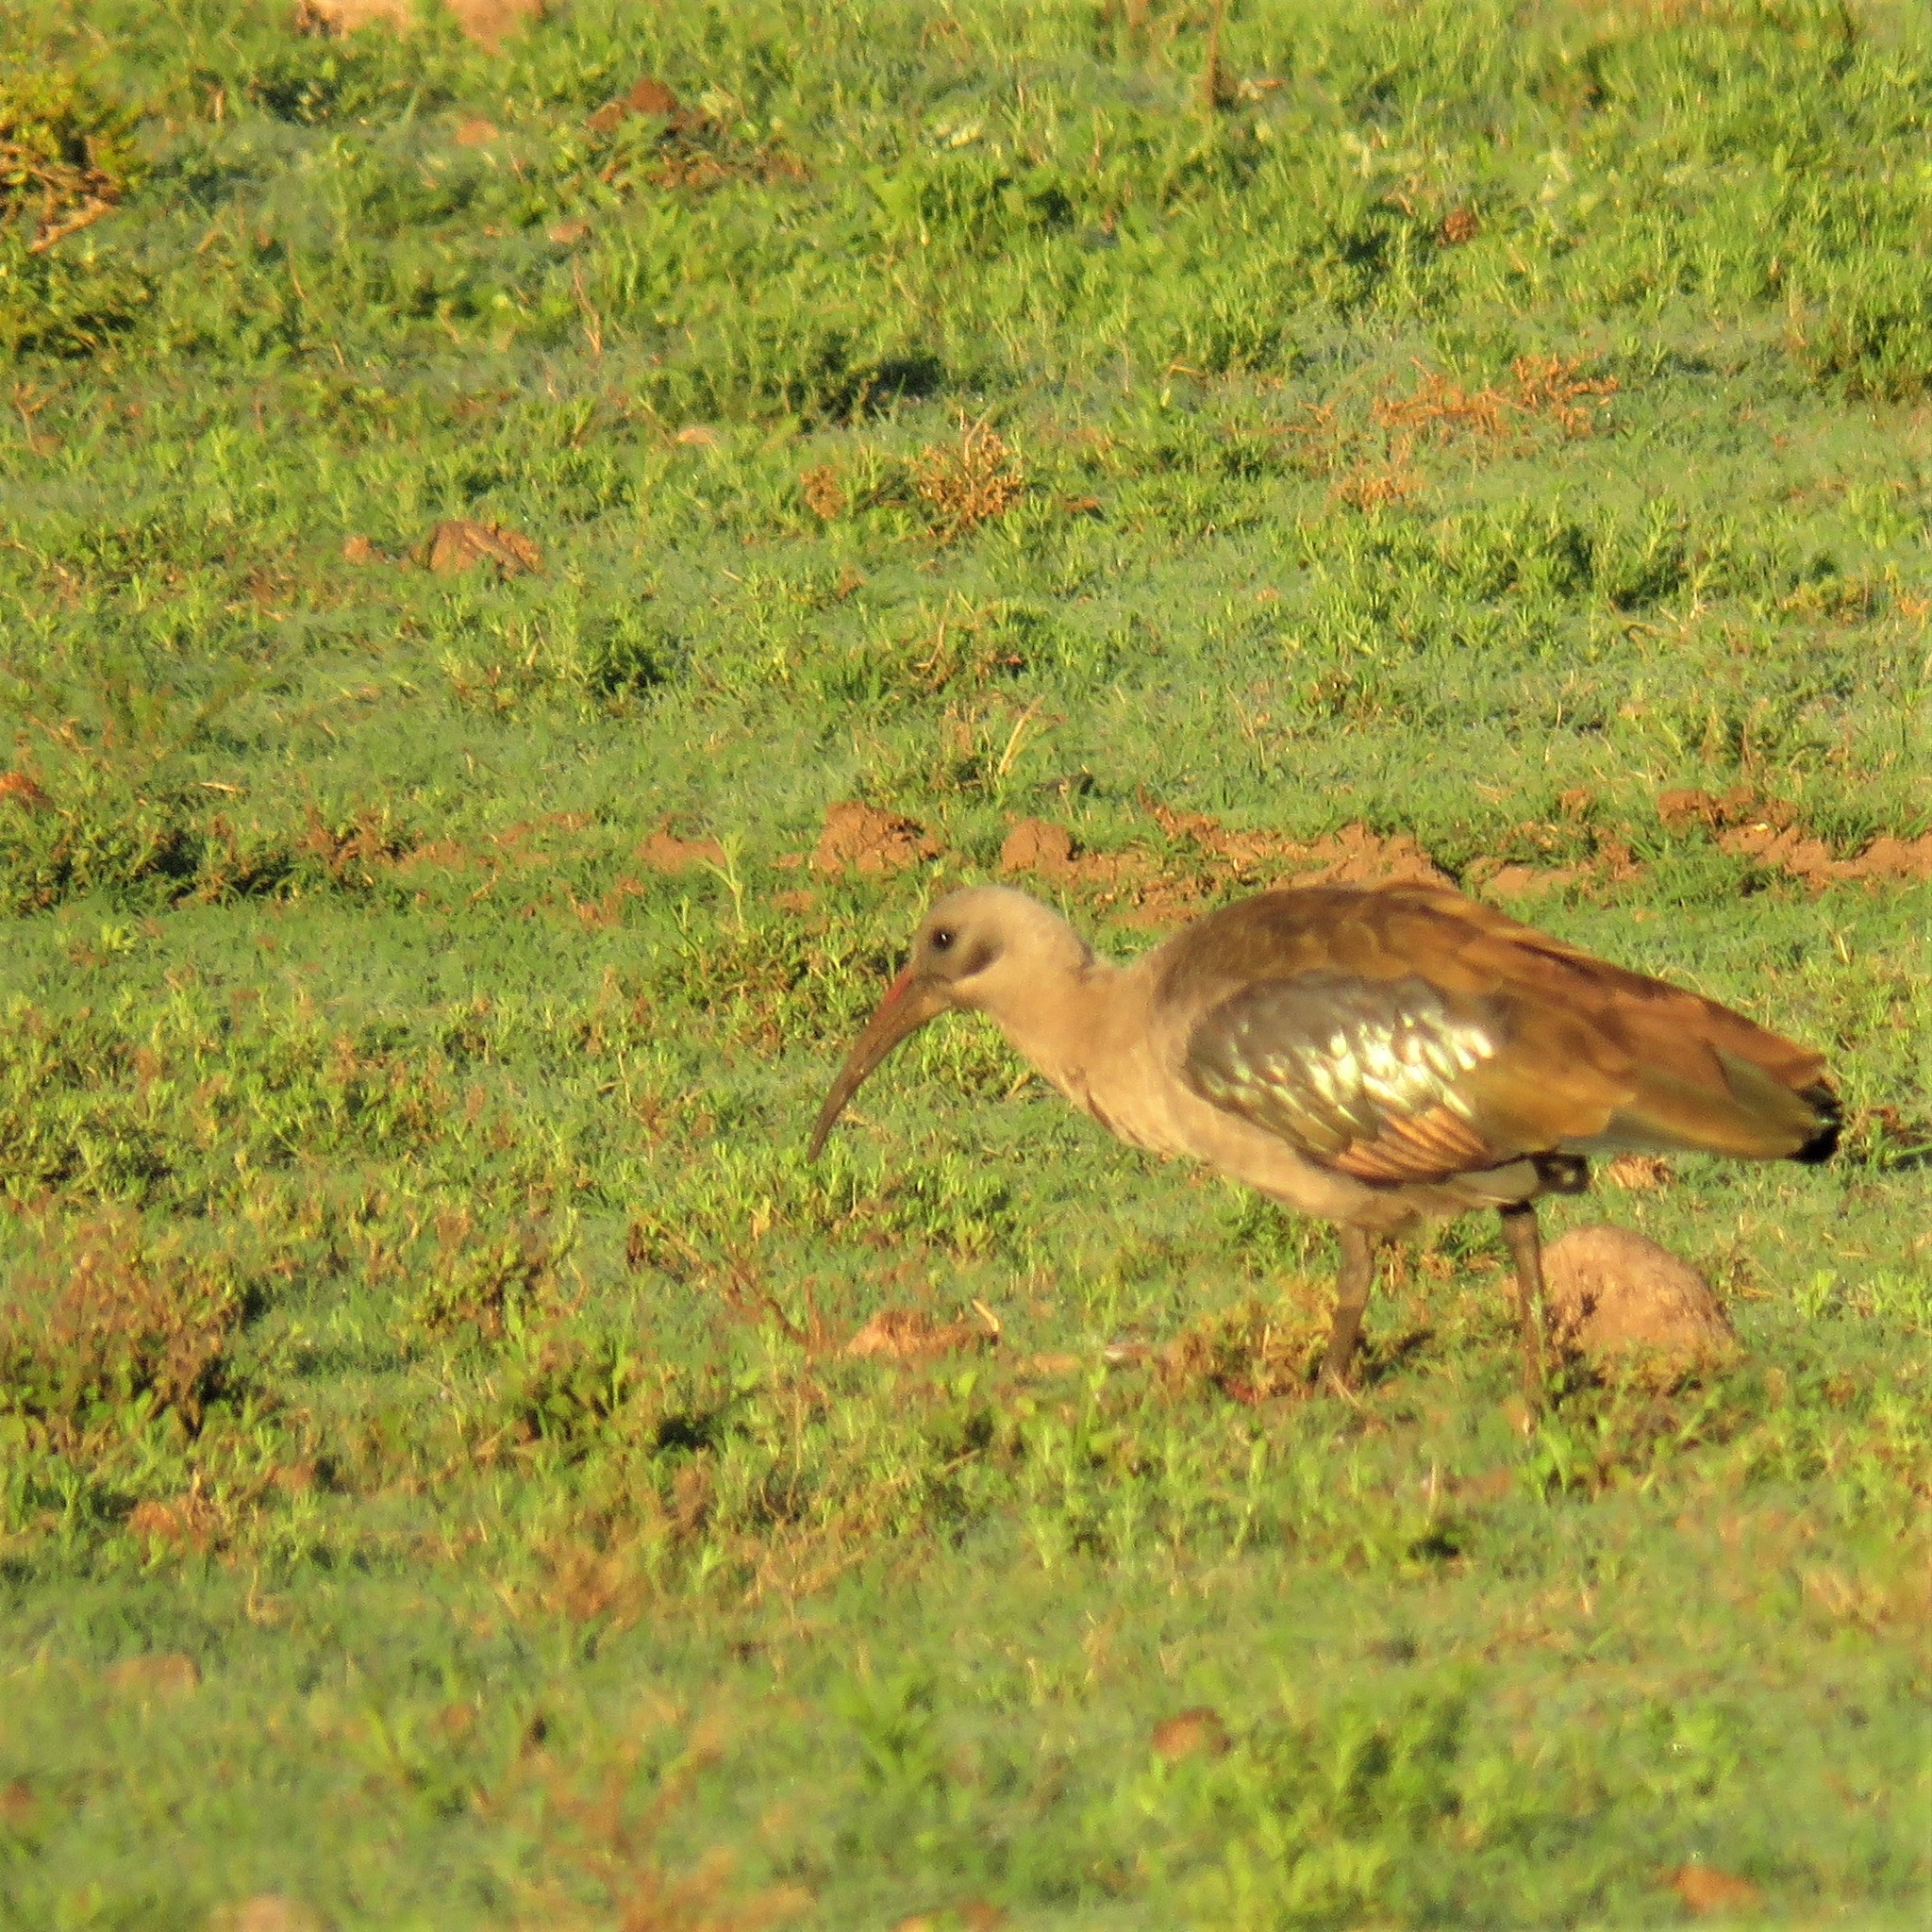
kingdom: Animalia
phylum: Chordata
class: Aves
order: Pelecaniformes
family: Threskiornithidae
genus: Bostrychia
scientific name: Bostrychia hagedash
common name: Hadada ibis
